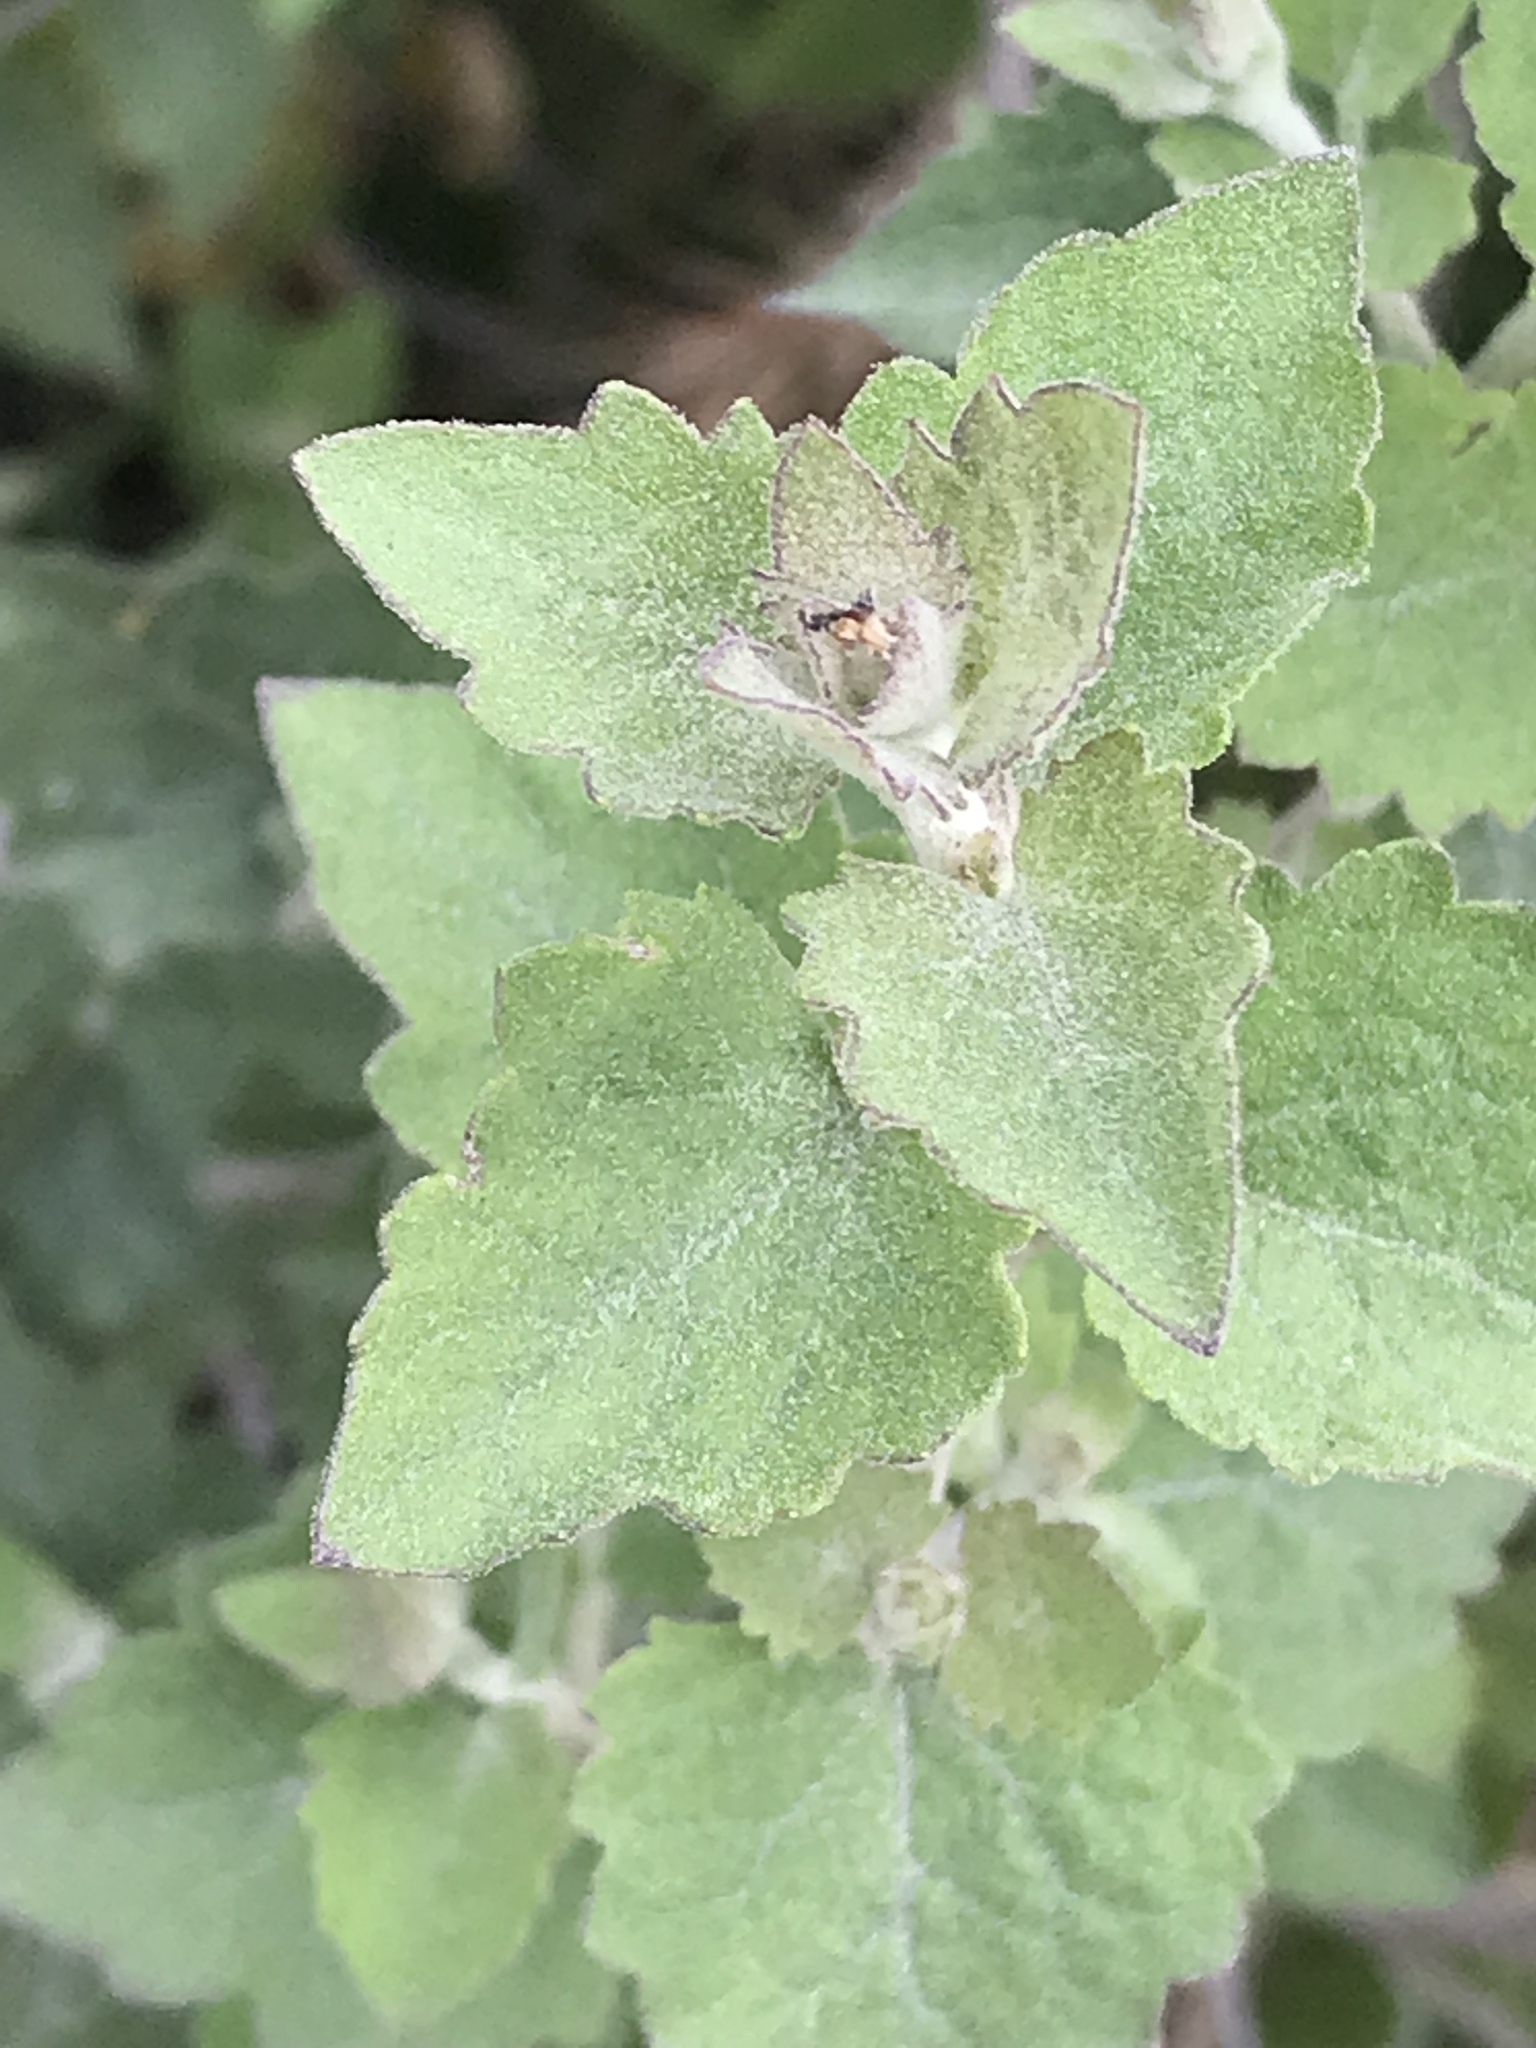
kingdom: Plantae
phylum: Tracheophyta
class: Magnoliopsida
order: Asterales
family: Asteraceae
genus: Brickellia
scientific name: Brickellia californica
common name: California brickellbush
